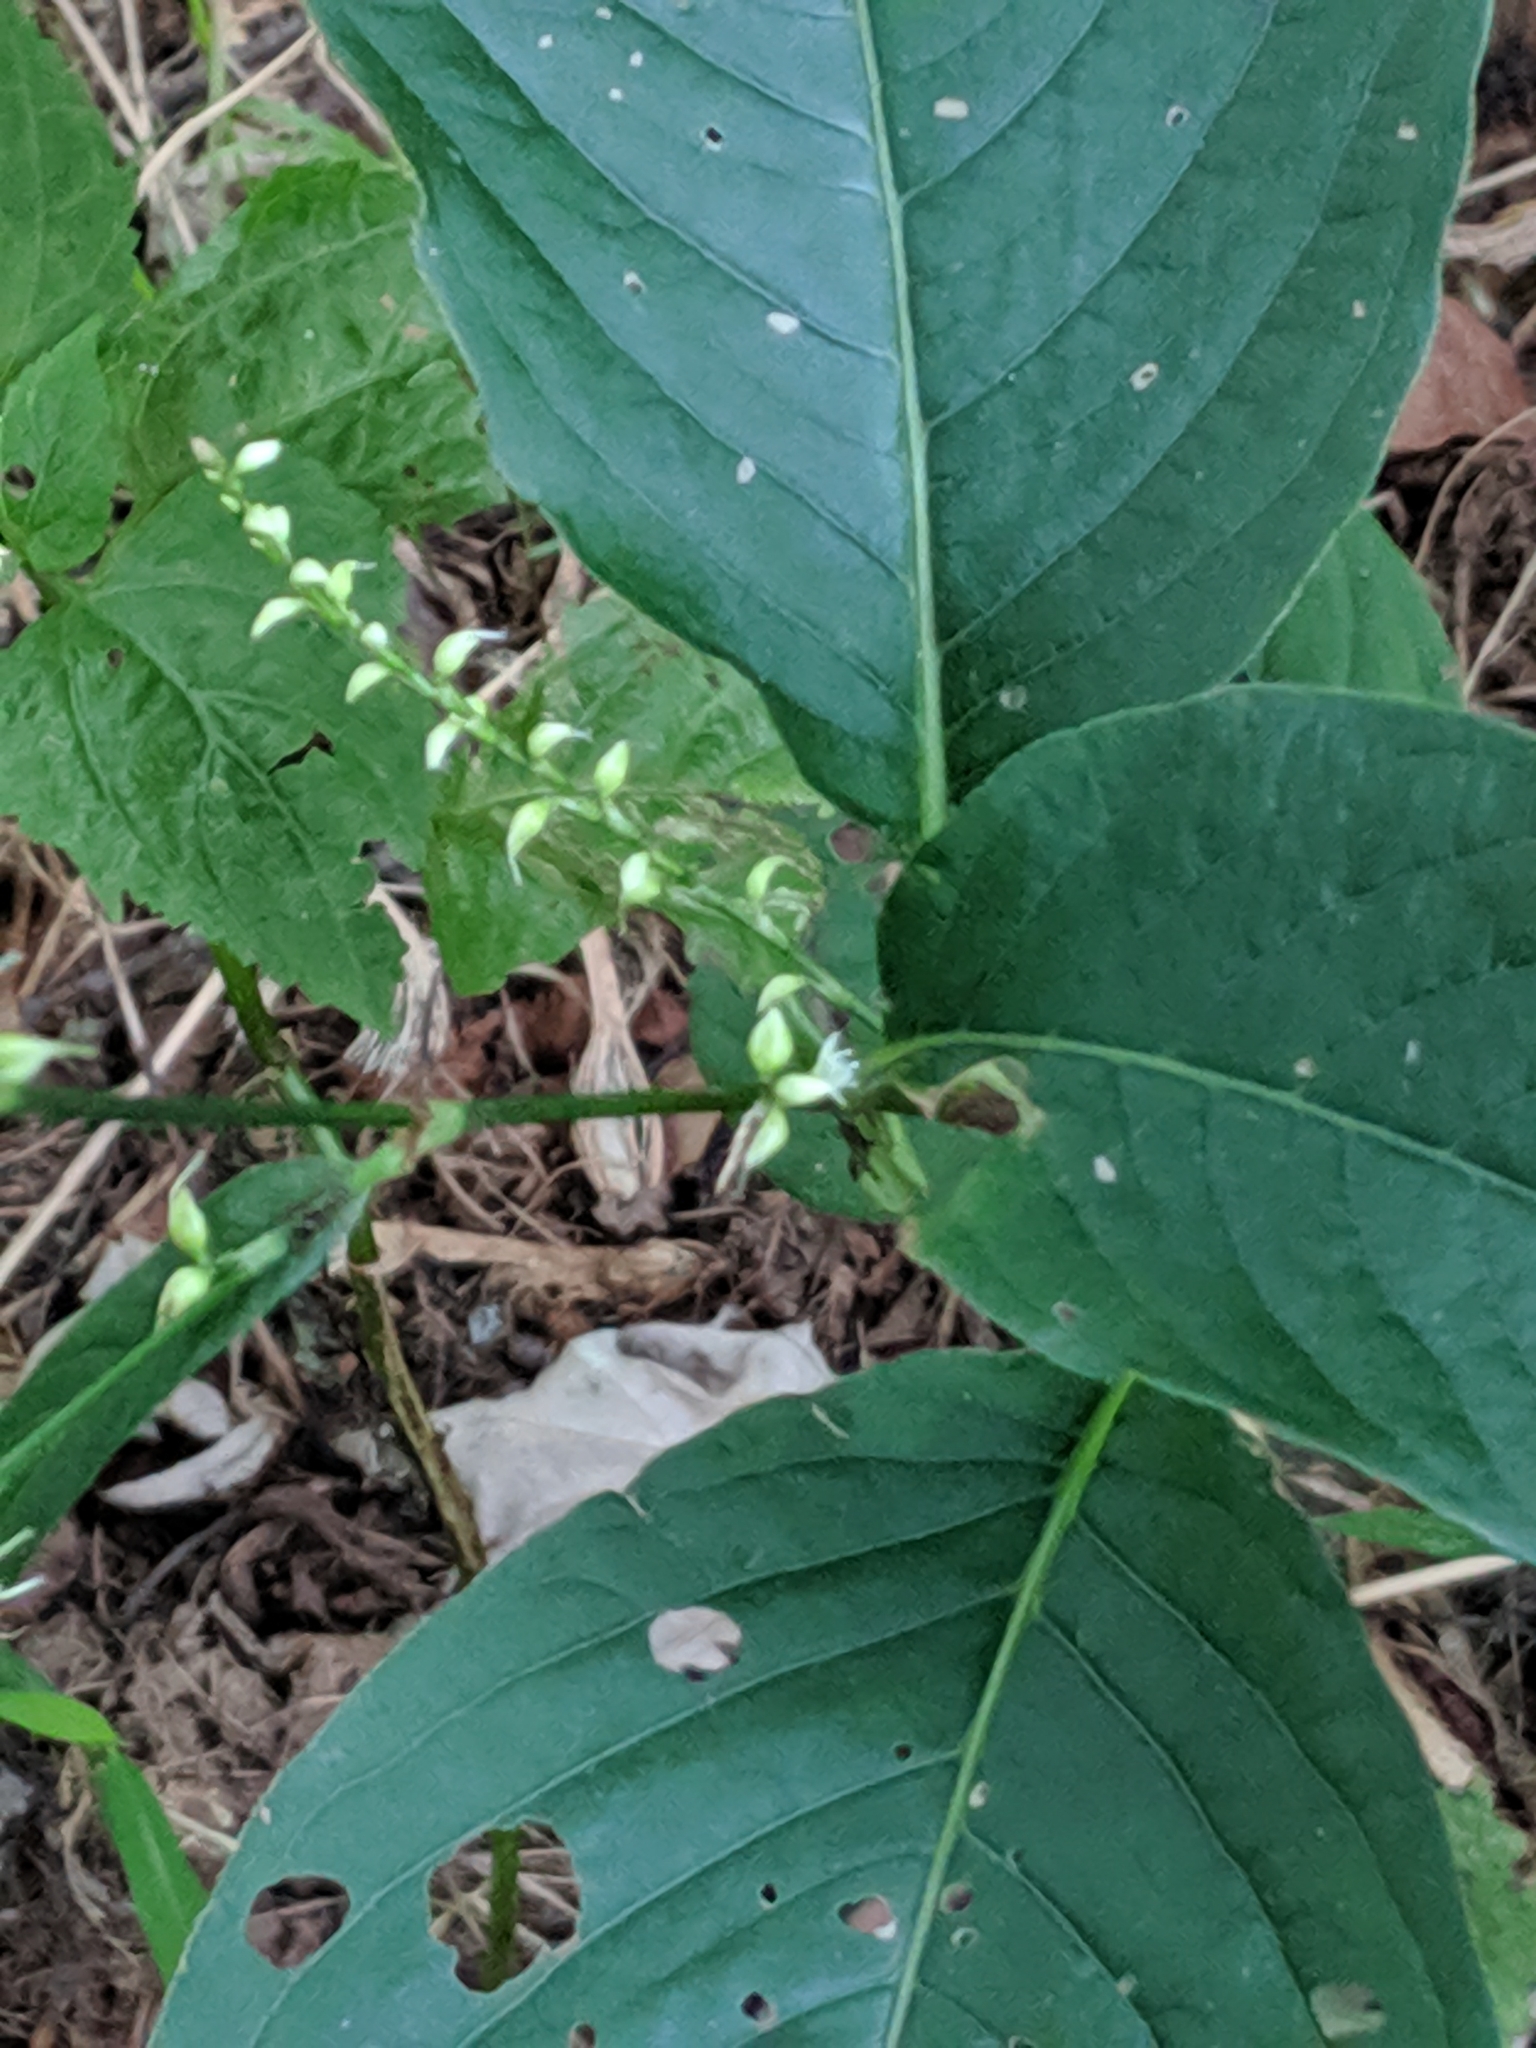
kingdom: Plantae
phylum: Tracheophyta
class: Magnoliopsida
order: Caryophyllales
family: Polygonaceae
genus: Persicaria
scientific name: Persicaria virginiana
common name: Jumpseed
